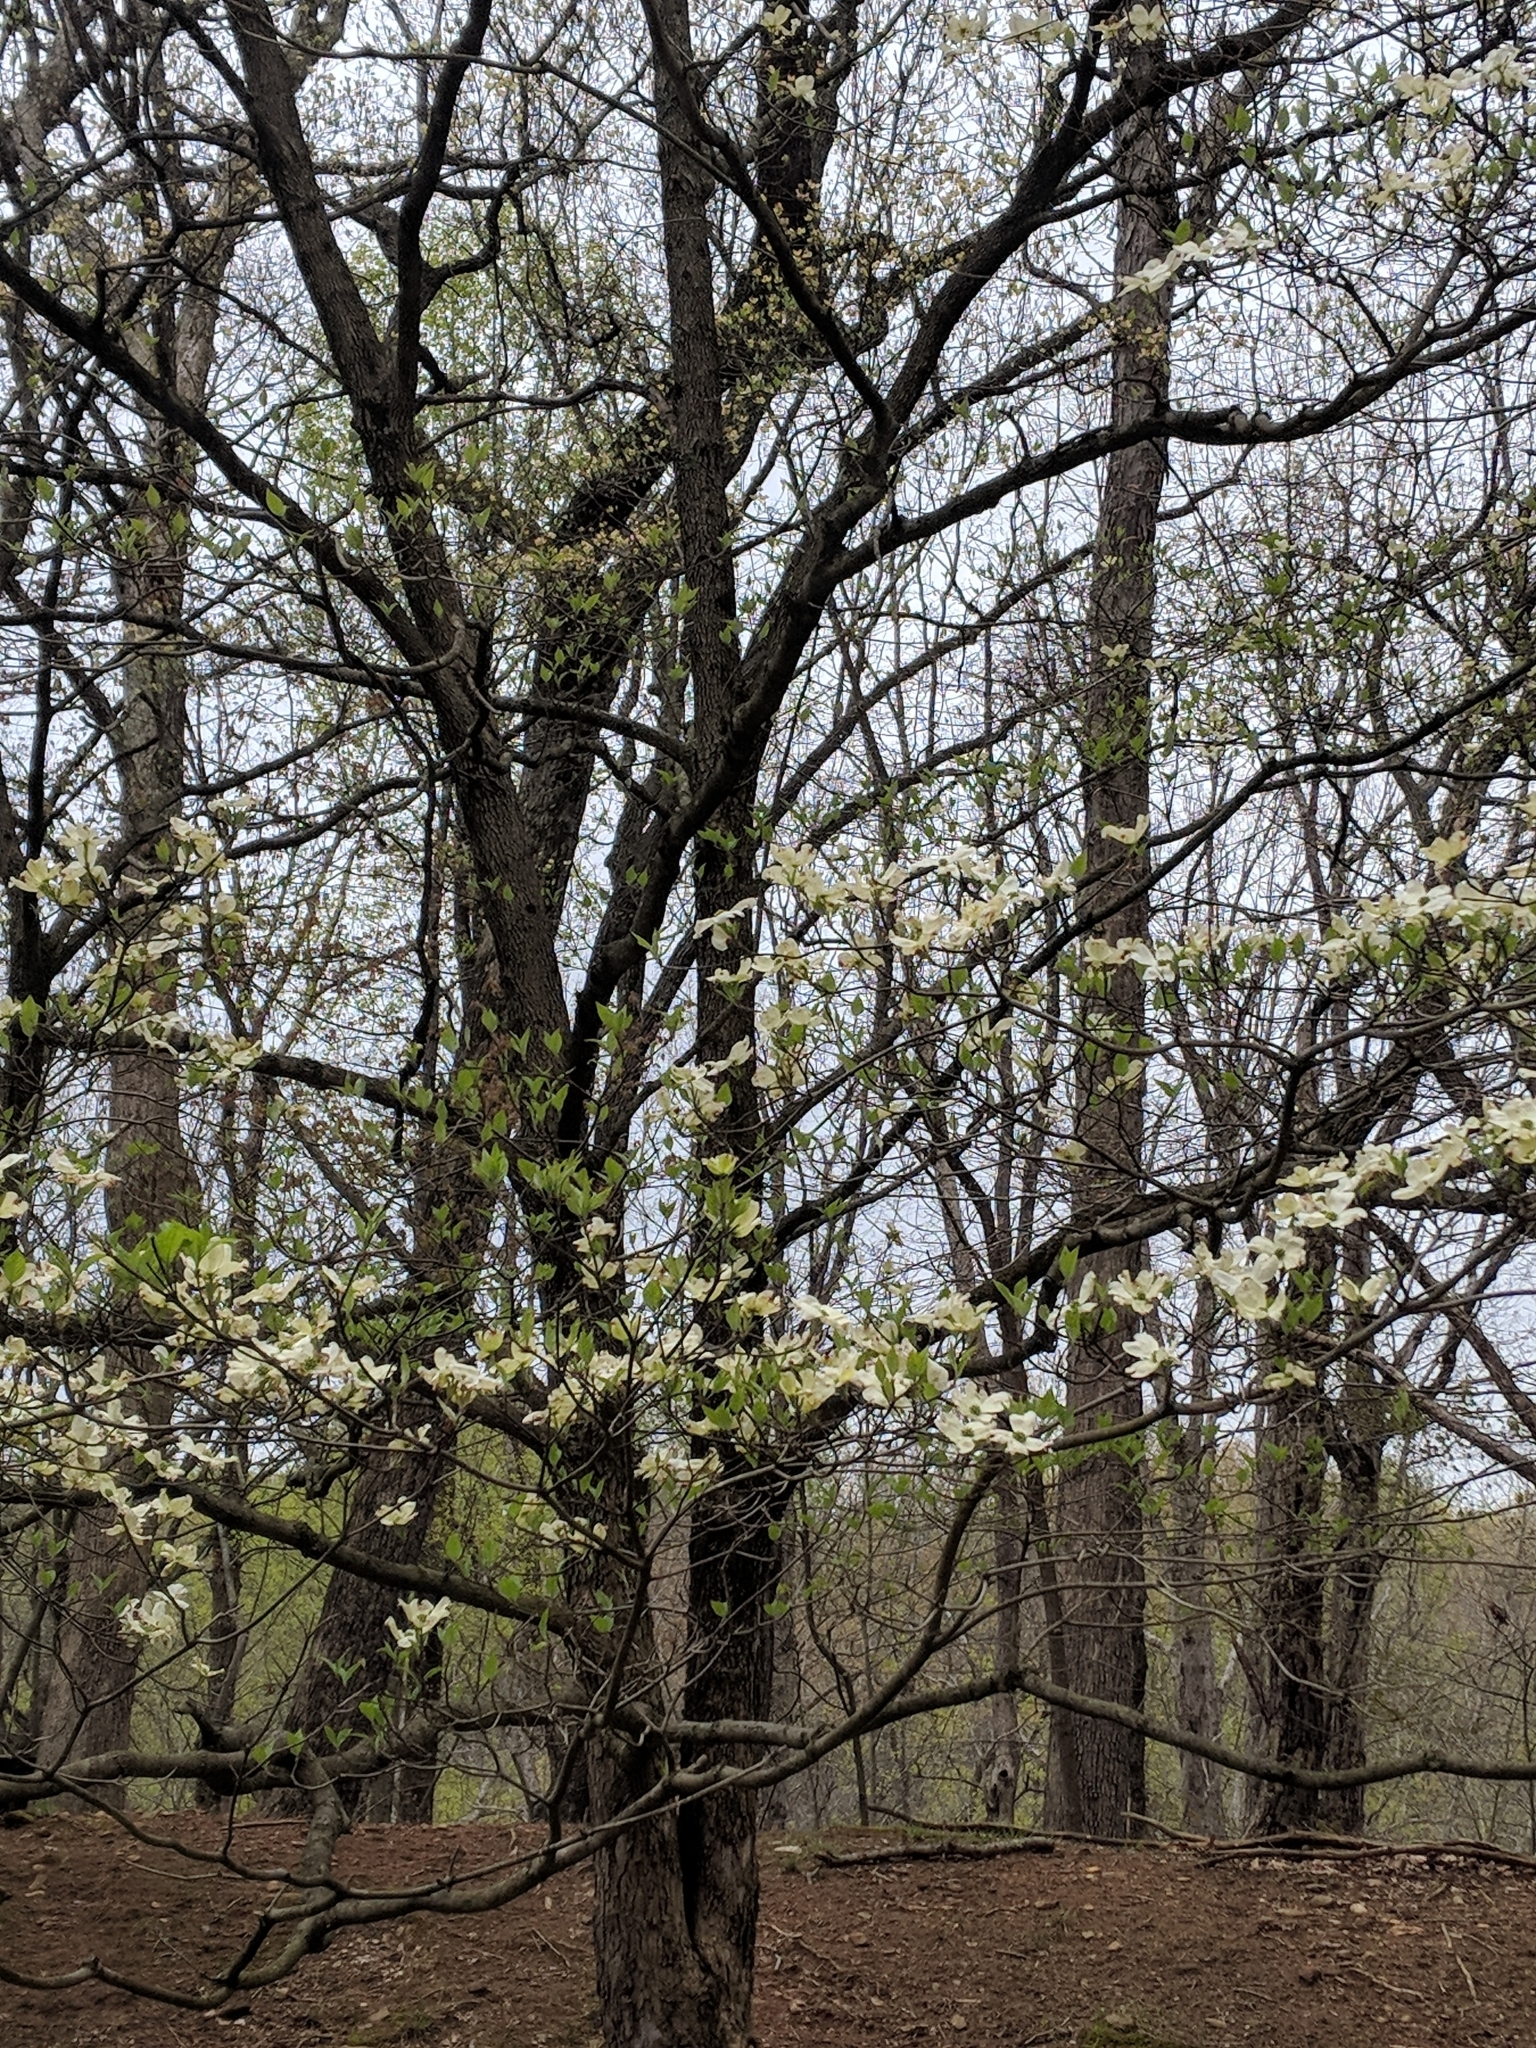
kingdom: Plantae
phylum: Tracheophyta
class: Magnoliopsida
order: Cornales
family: Cornaceae
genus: Cornus
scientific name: Cornus florida
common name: Flowering dogwood
